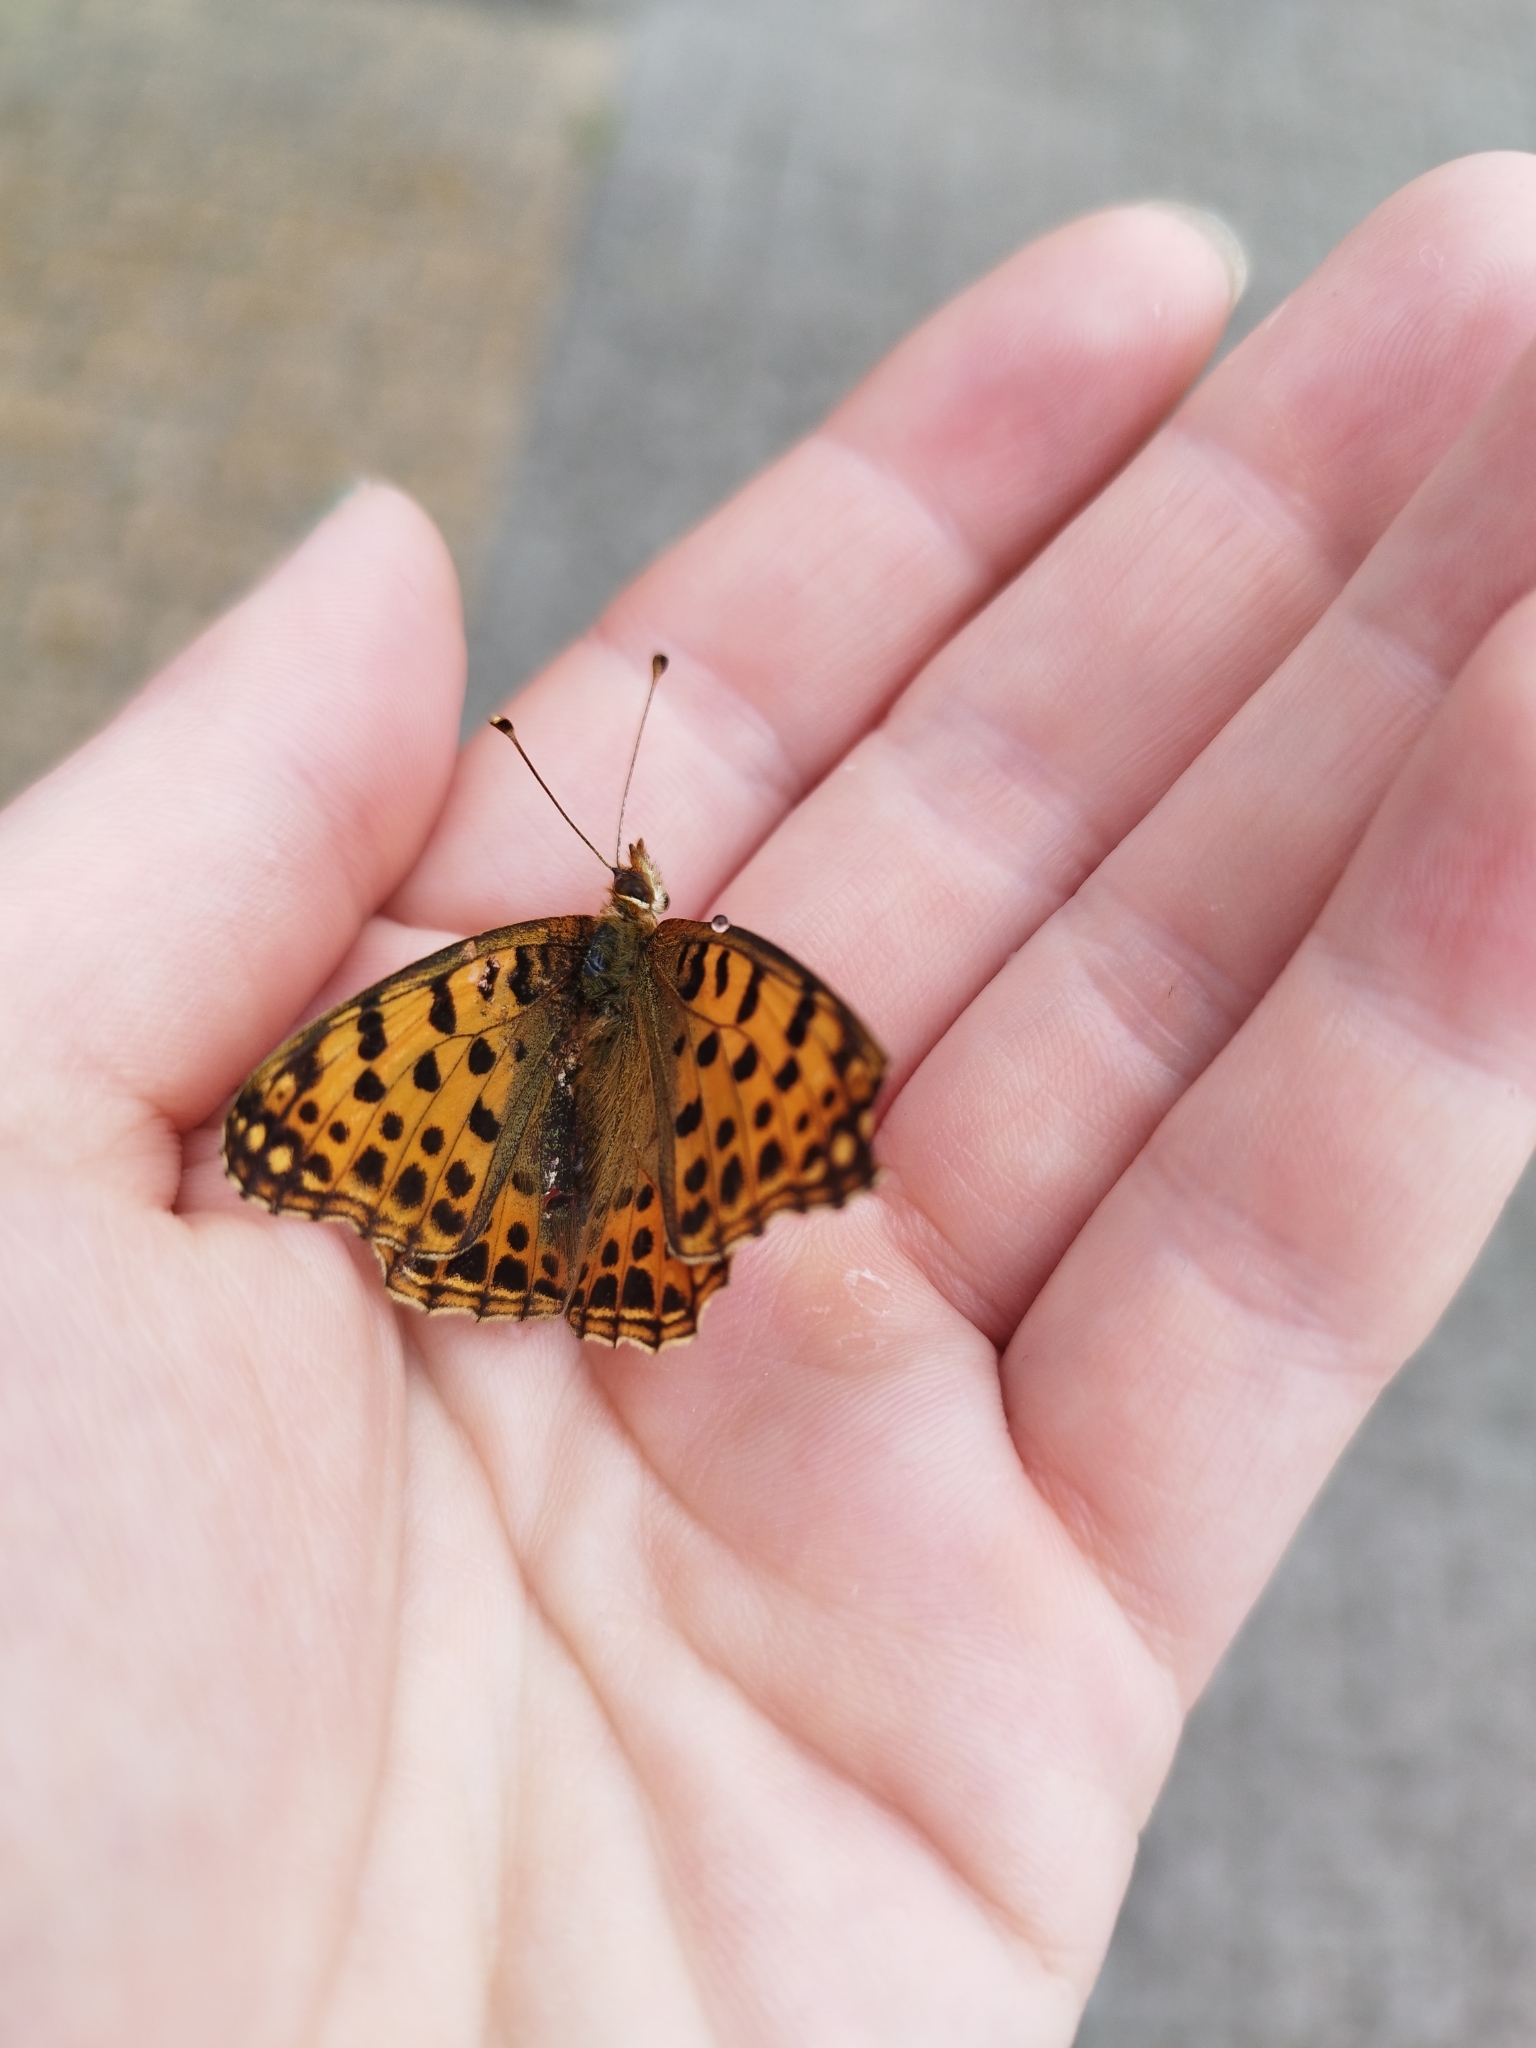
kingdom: Animalia
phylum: Arthropoda
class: Insecta
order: Lepidoptera
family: Nymphalidae
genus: Issoria
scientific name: Issoria lathonia
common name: Queen of spain fritillary
